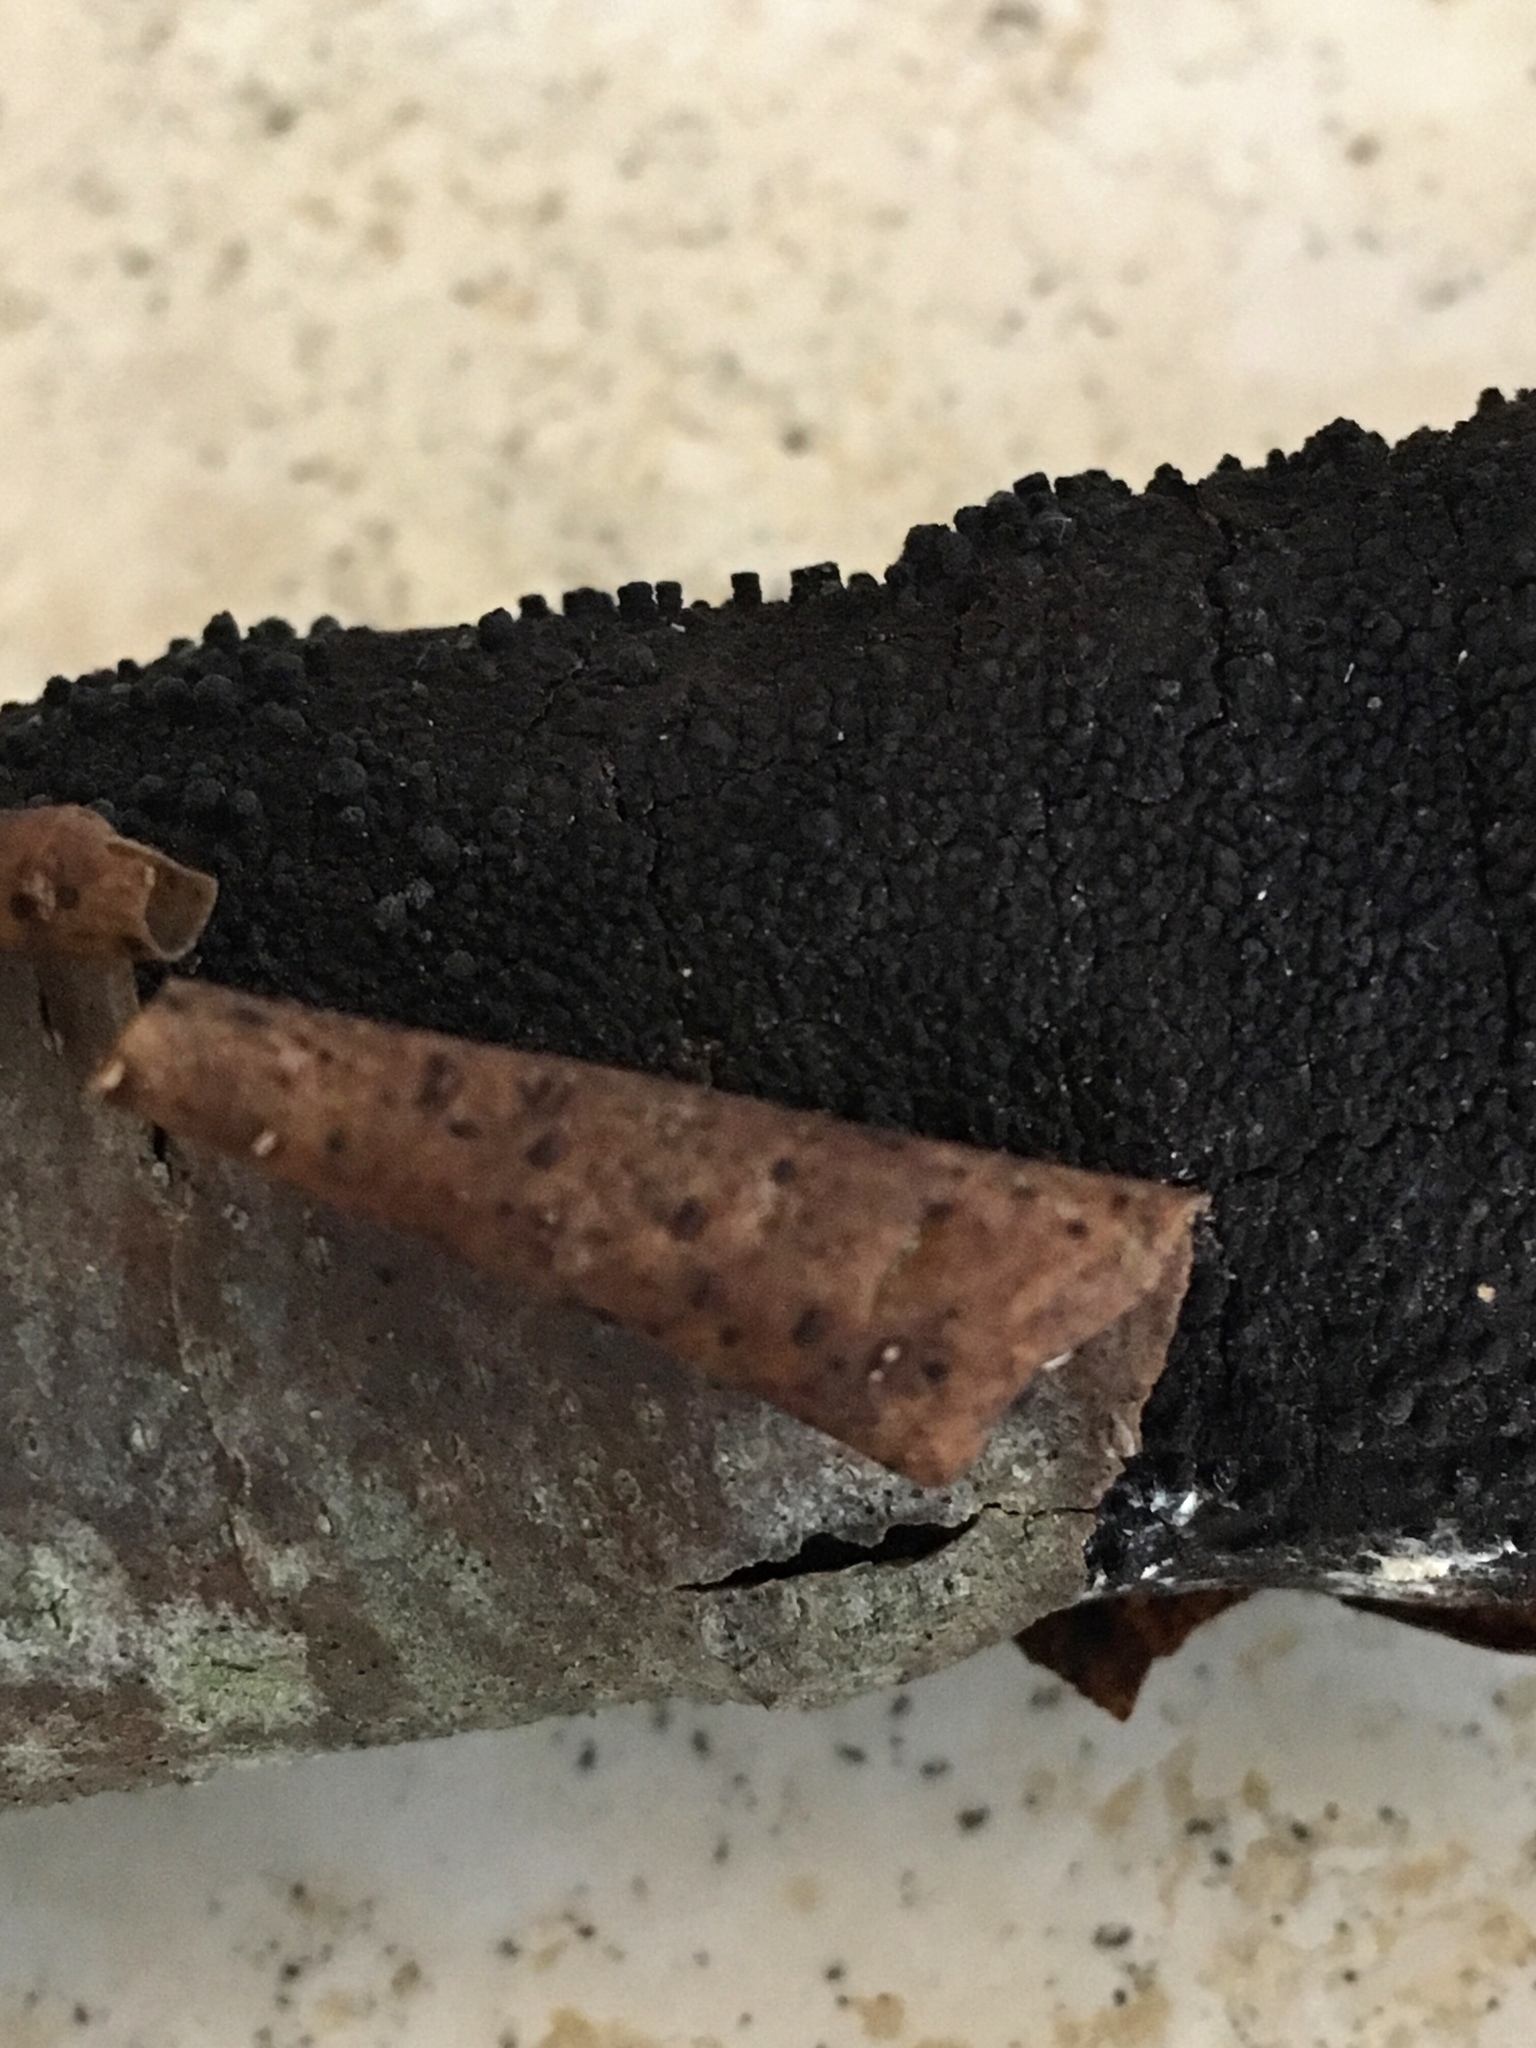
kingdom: Fungi
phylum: Ascomycota
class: Sordariomycetes
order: Xylariales
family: Diatrypaceae
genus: Eutypa
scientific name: Eutypa
